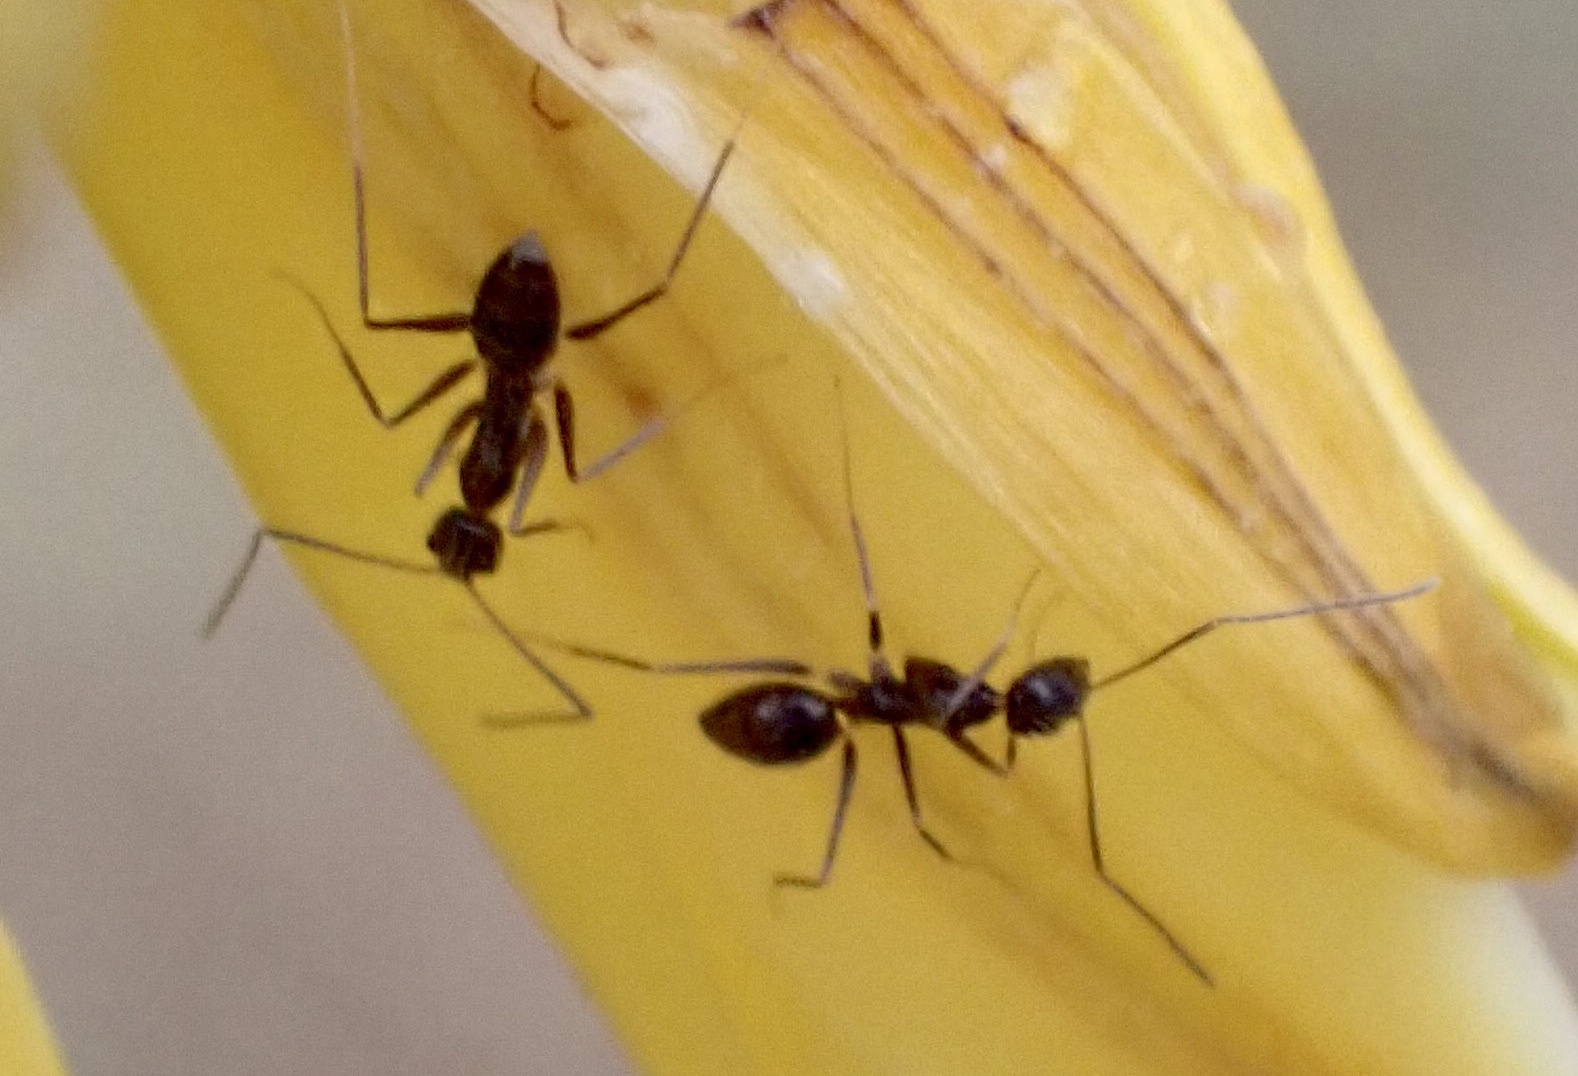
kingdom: Animalia
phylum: Arthropoda
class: Insecta
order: Hymenoptera
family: Formicidae
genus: Paratrechina
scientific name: Paratrechina longicornis
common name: Longhorned crazy ant
